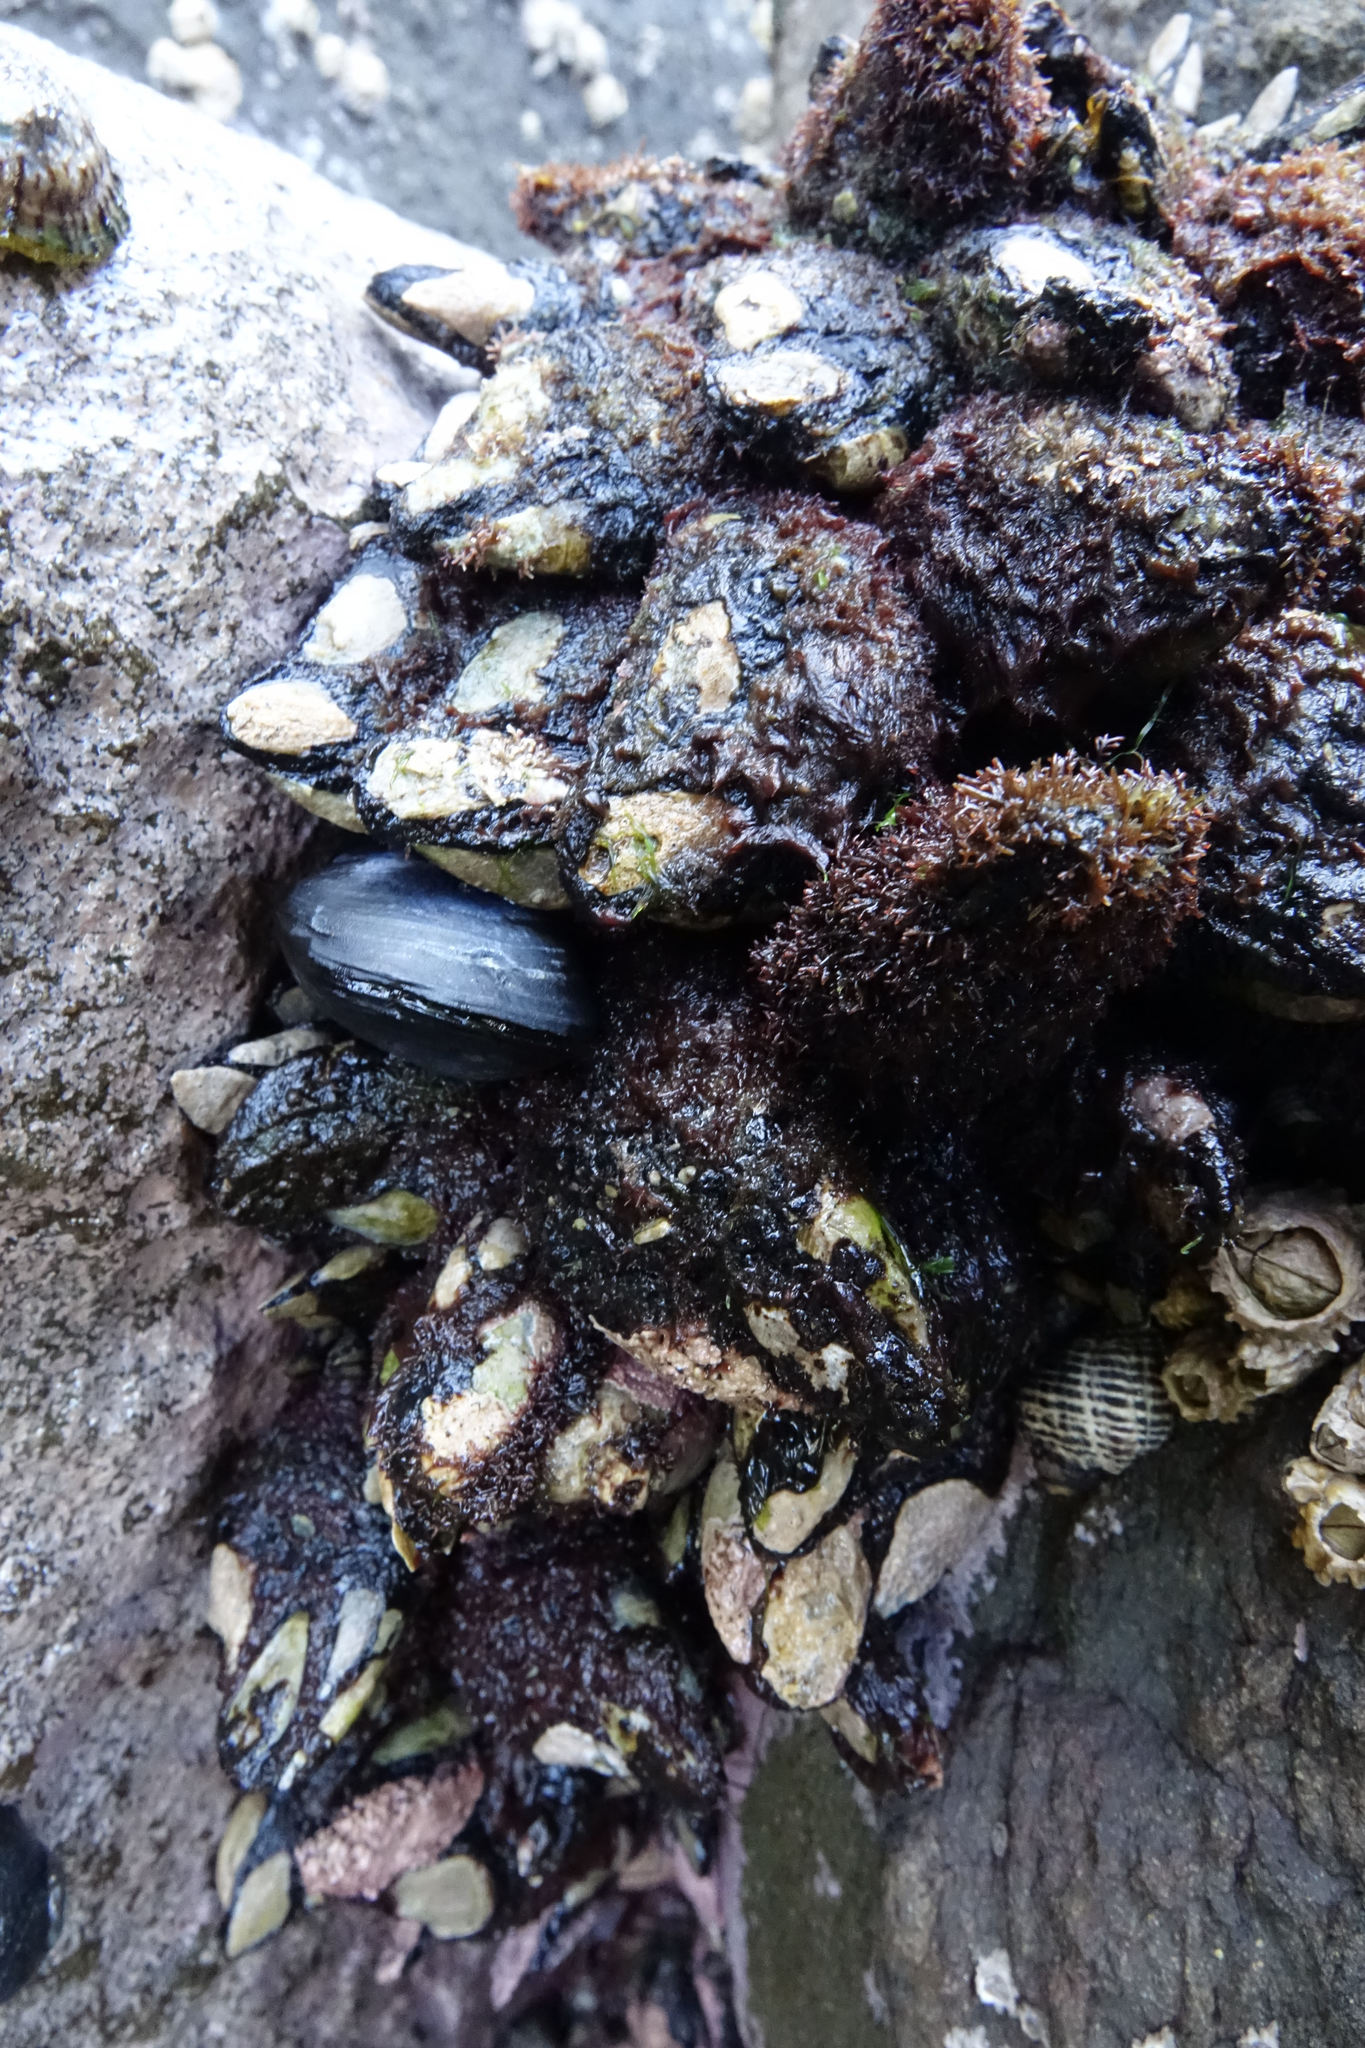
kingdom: Animalia
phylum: Arthropoda
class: Maxillopoda
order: Pedunculata
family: Calanticidae
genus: Calantica
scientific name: Calantica spinosa
